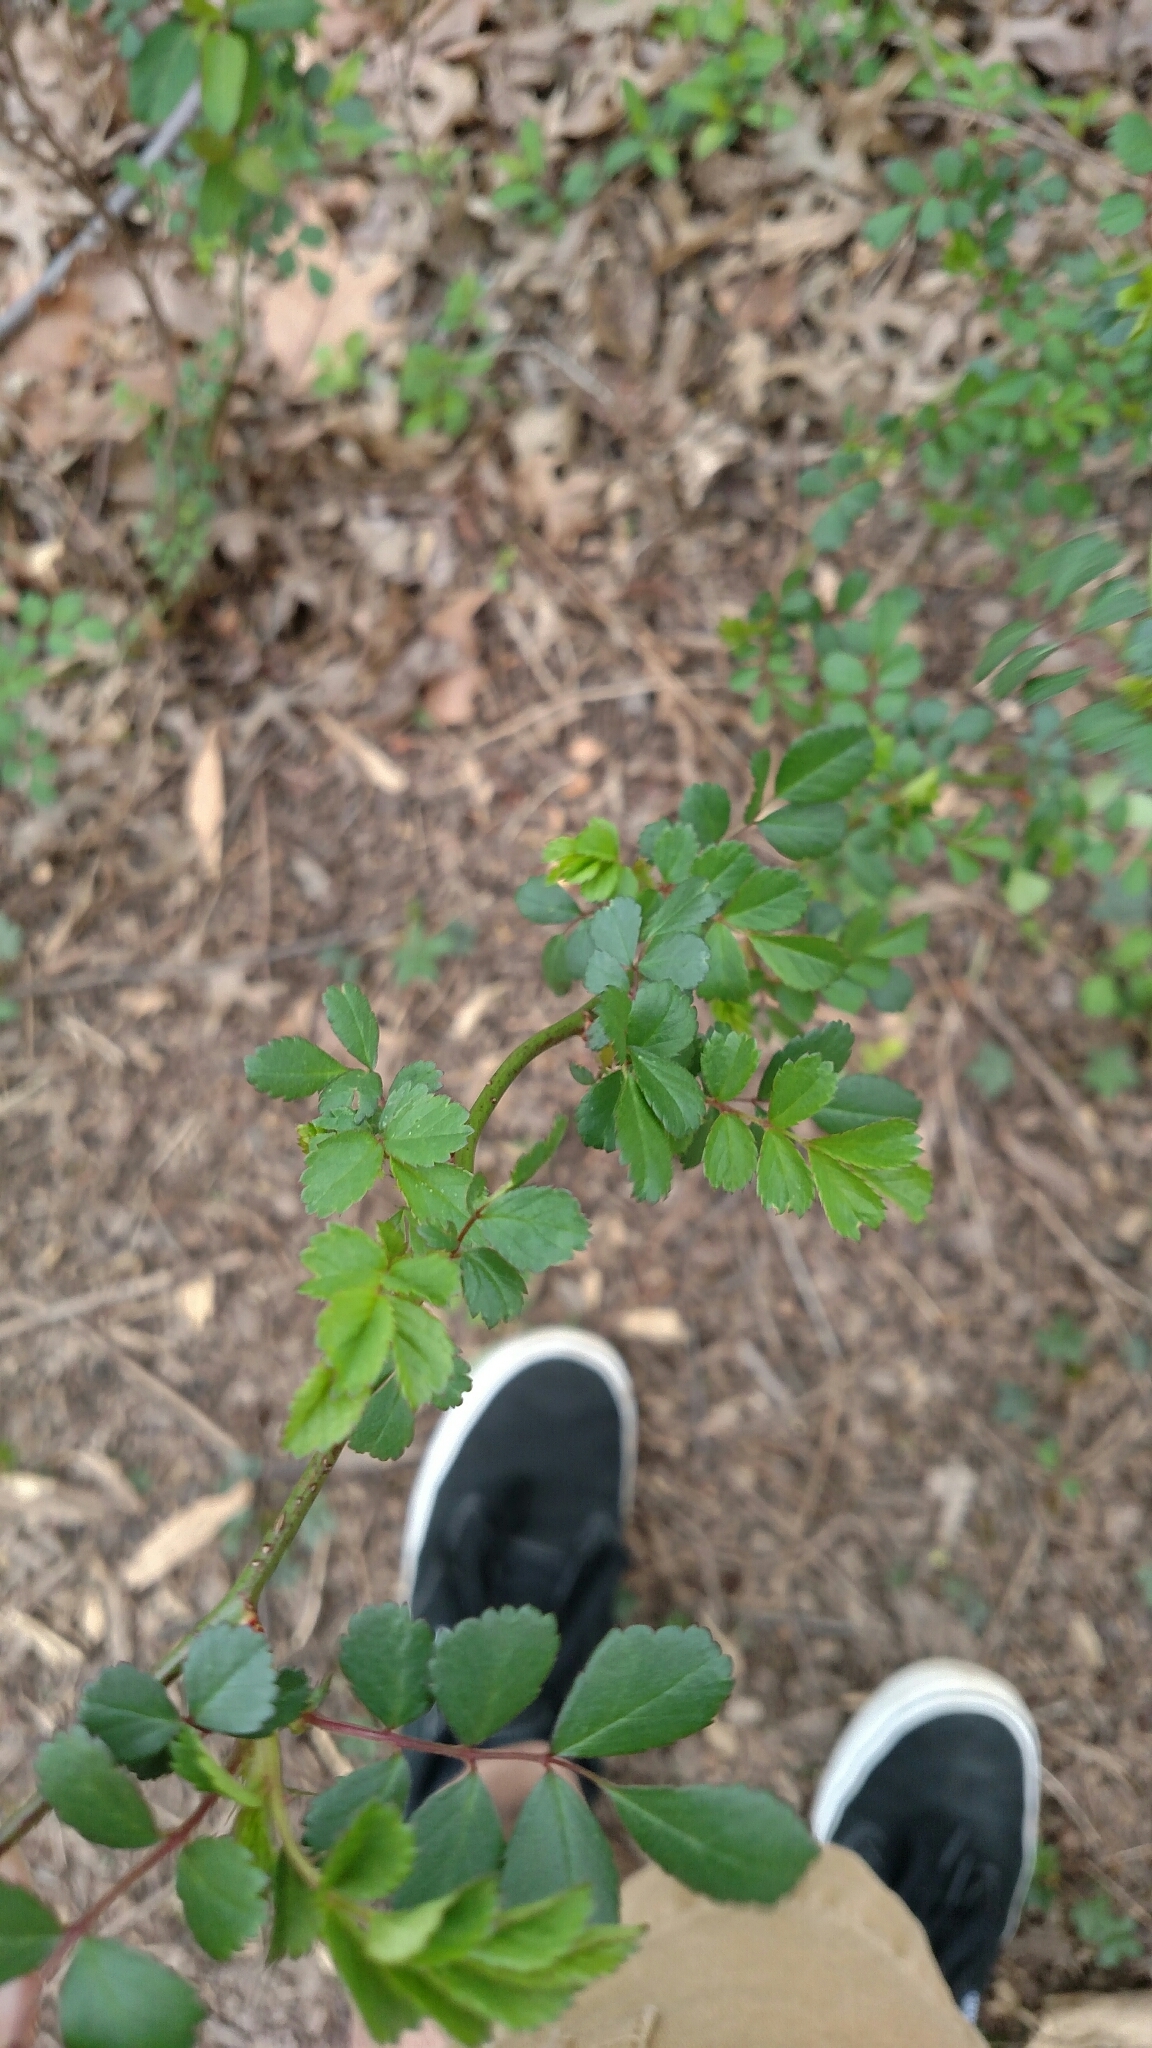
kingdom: Plantae
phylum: Tracheophyta
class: Magnoliopsida
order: Rosales
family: Rosaceae
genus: Rosa
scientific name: Rosa multiflora
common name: Multiflora rose
